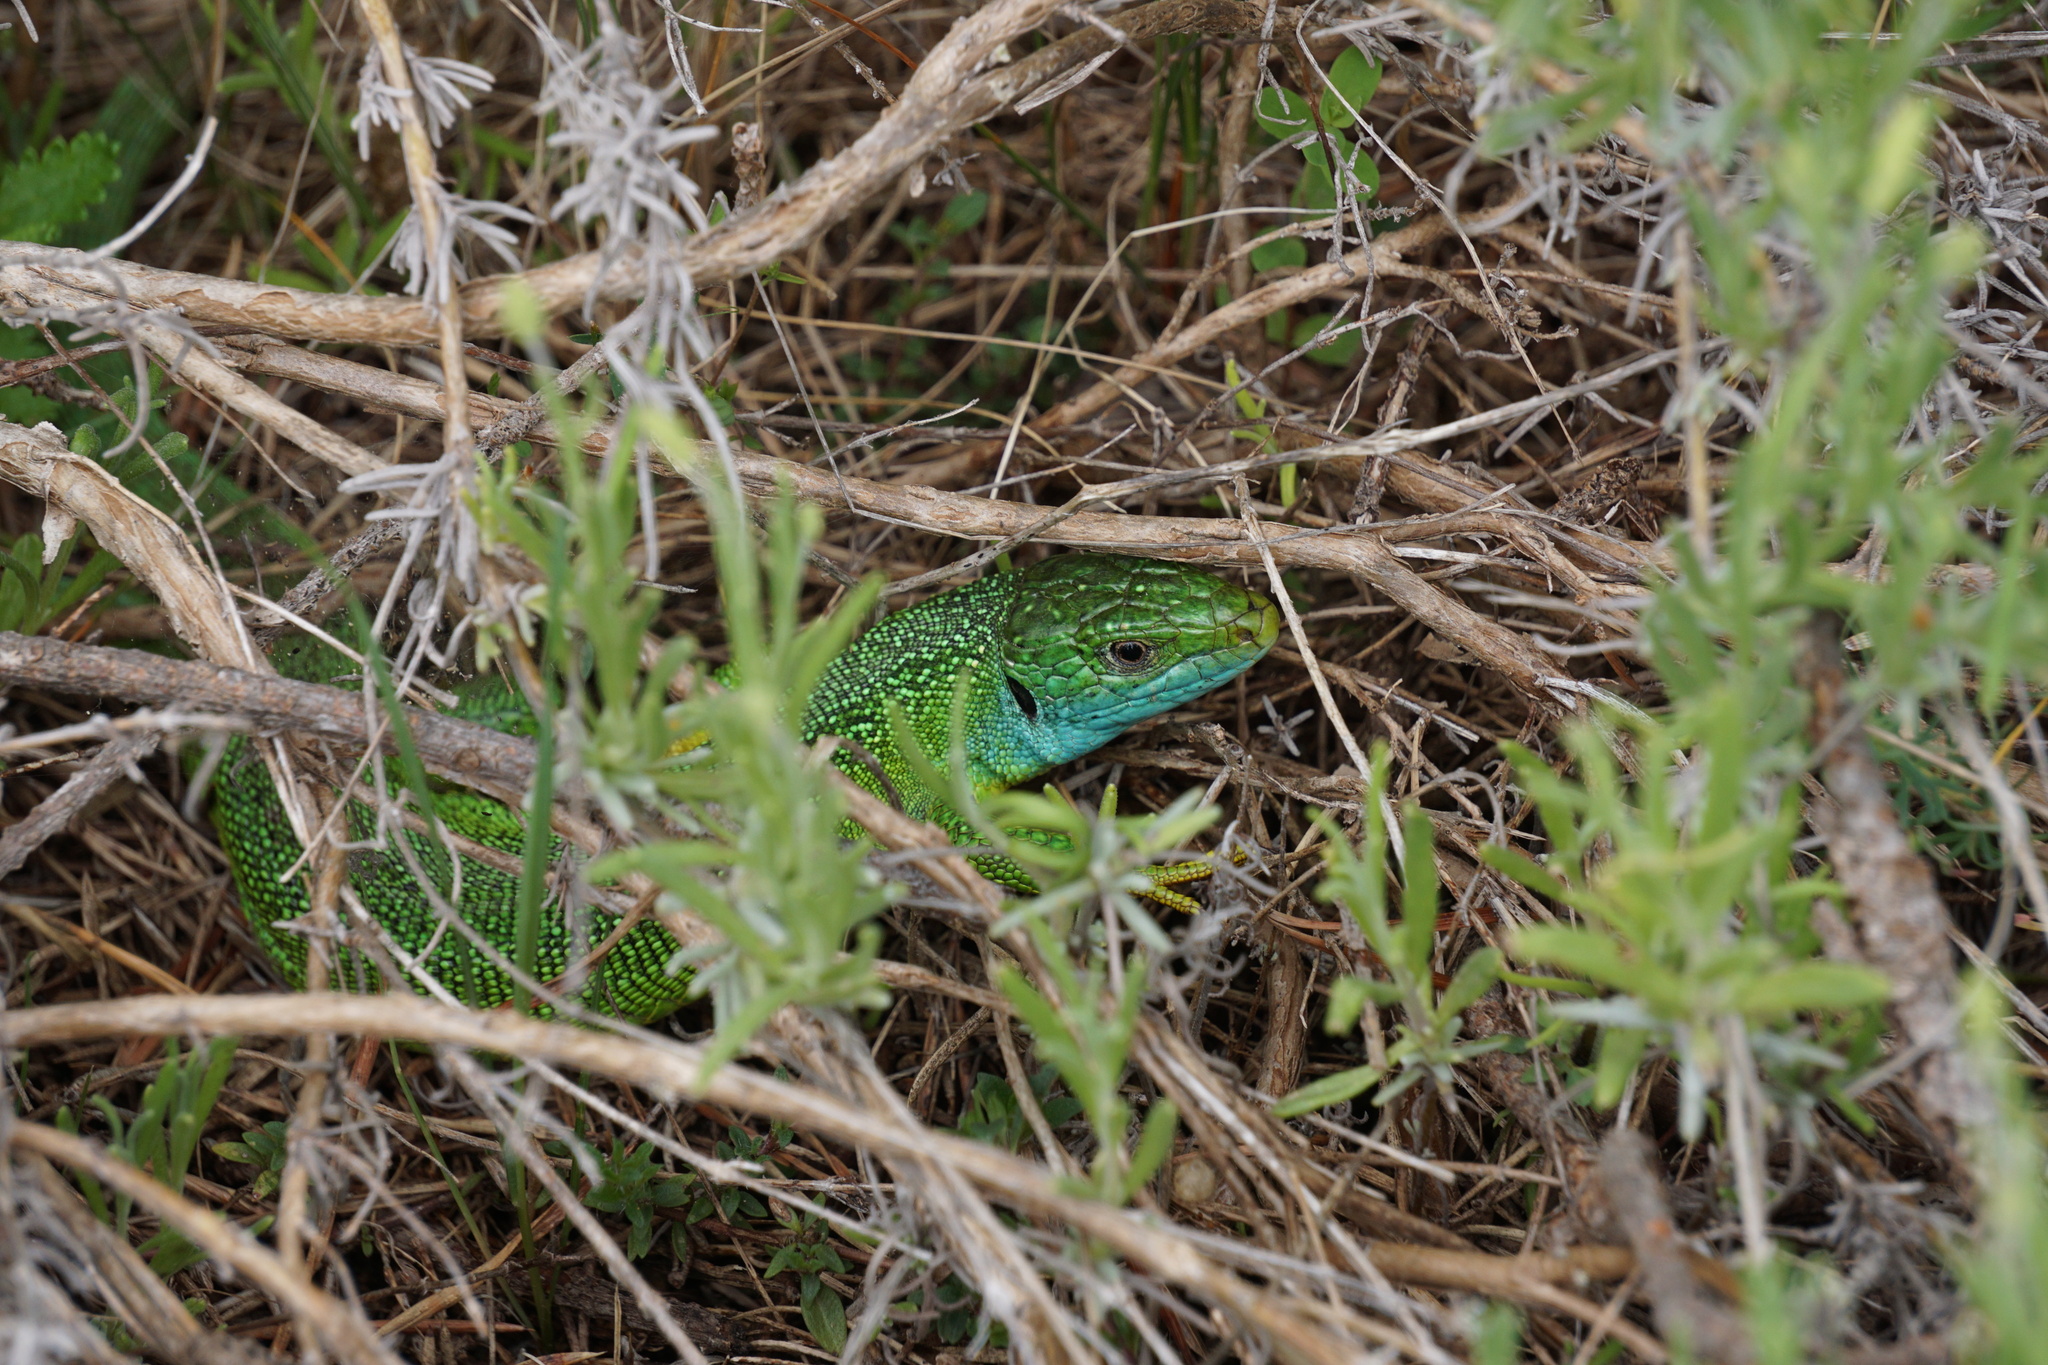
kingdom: Animalia
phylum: Chordata
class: Squamata
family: Lacertidae
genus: Lacerta
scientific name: Lacerta bilineata
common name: Western green lizard
